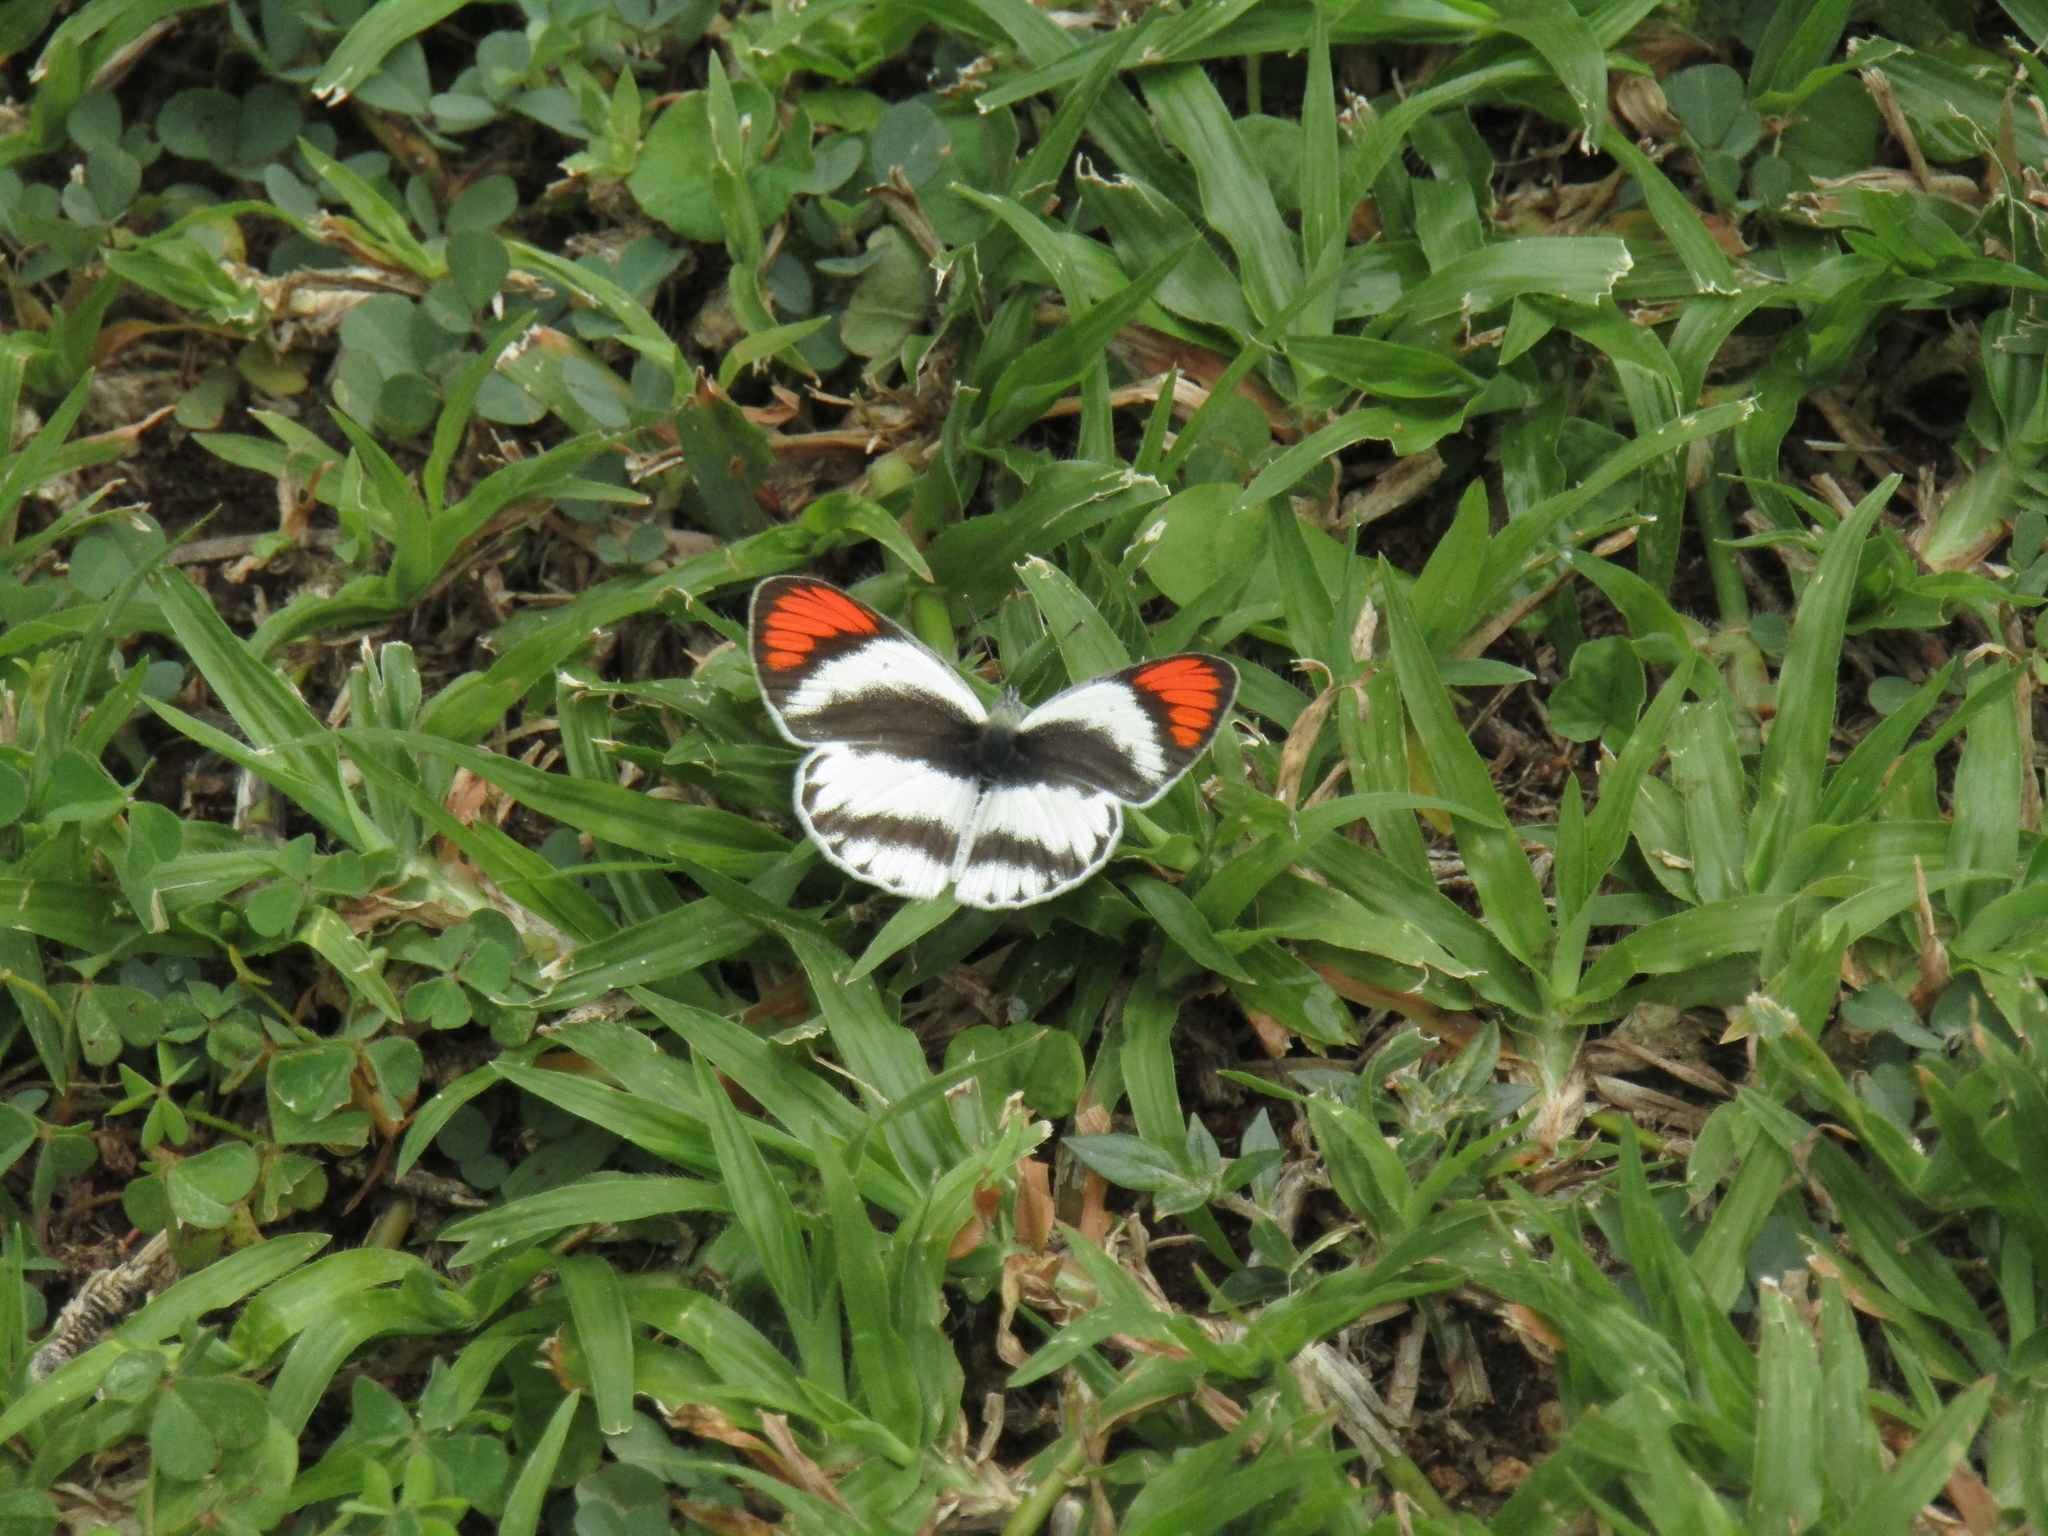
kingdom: Animalia
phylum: Arthropoda
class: Insecta
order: Lepidoptera
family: Pieridae
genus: Colotis
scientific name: Colotis euippe
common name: Round-winged orange tip
